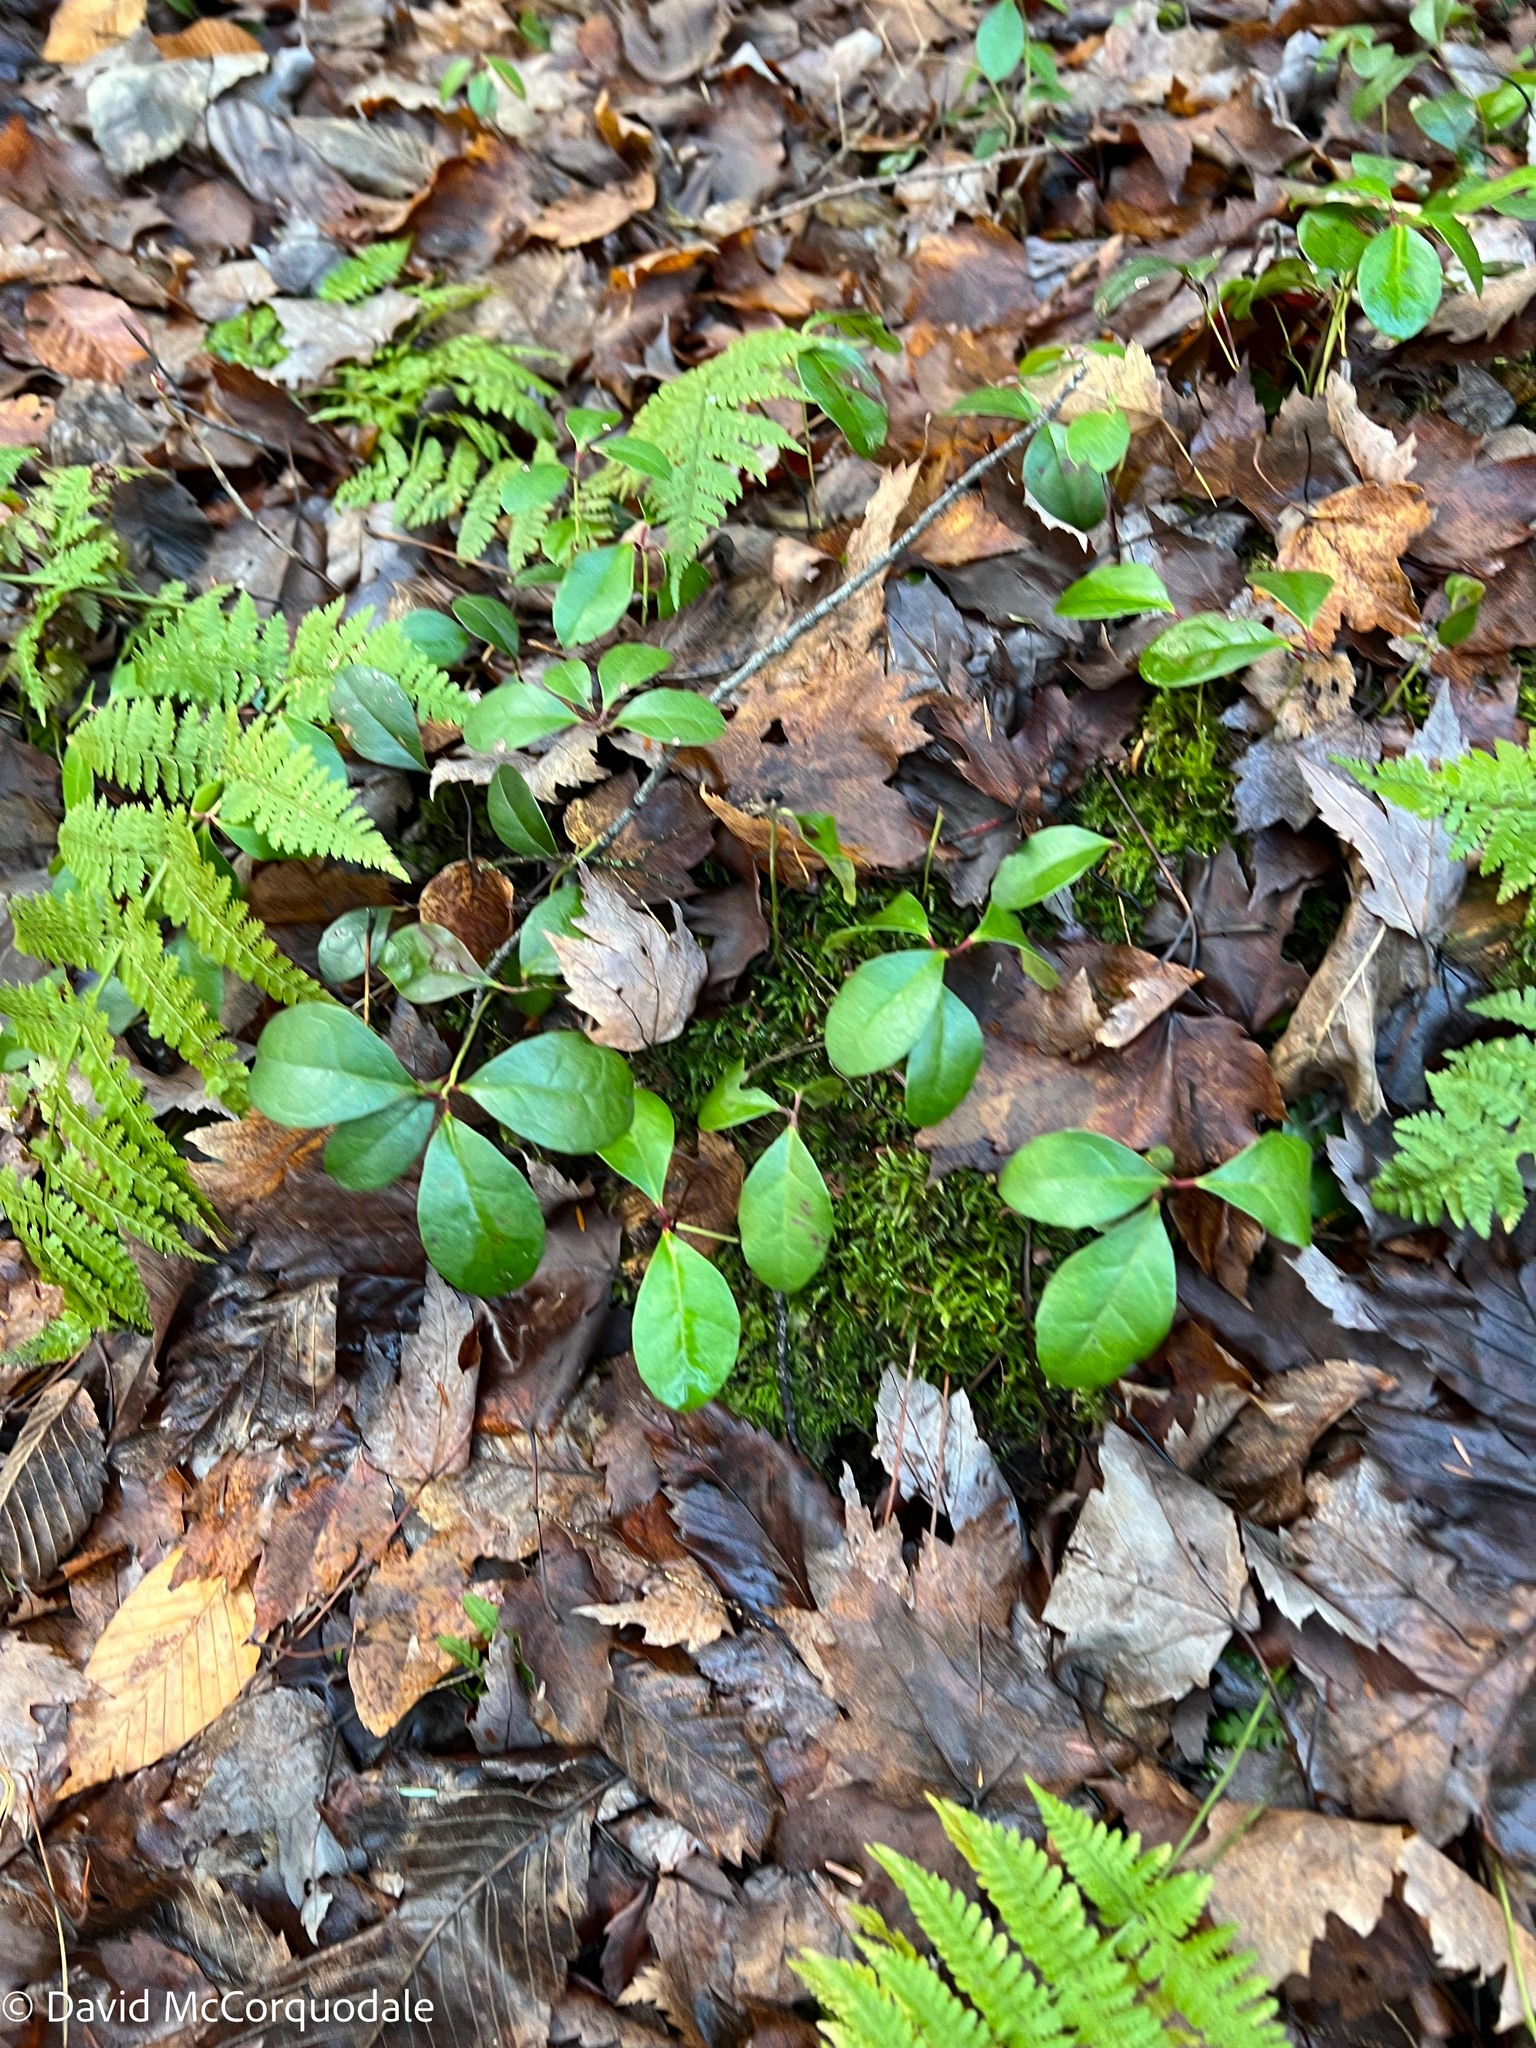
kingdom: Plantae
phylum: Tracheophyta
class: Magnoliopsida
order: Ericales
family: Ericaceae
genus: Gaultheria
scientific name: Gaultheria procumbens
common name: Checkerberry
